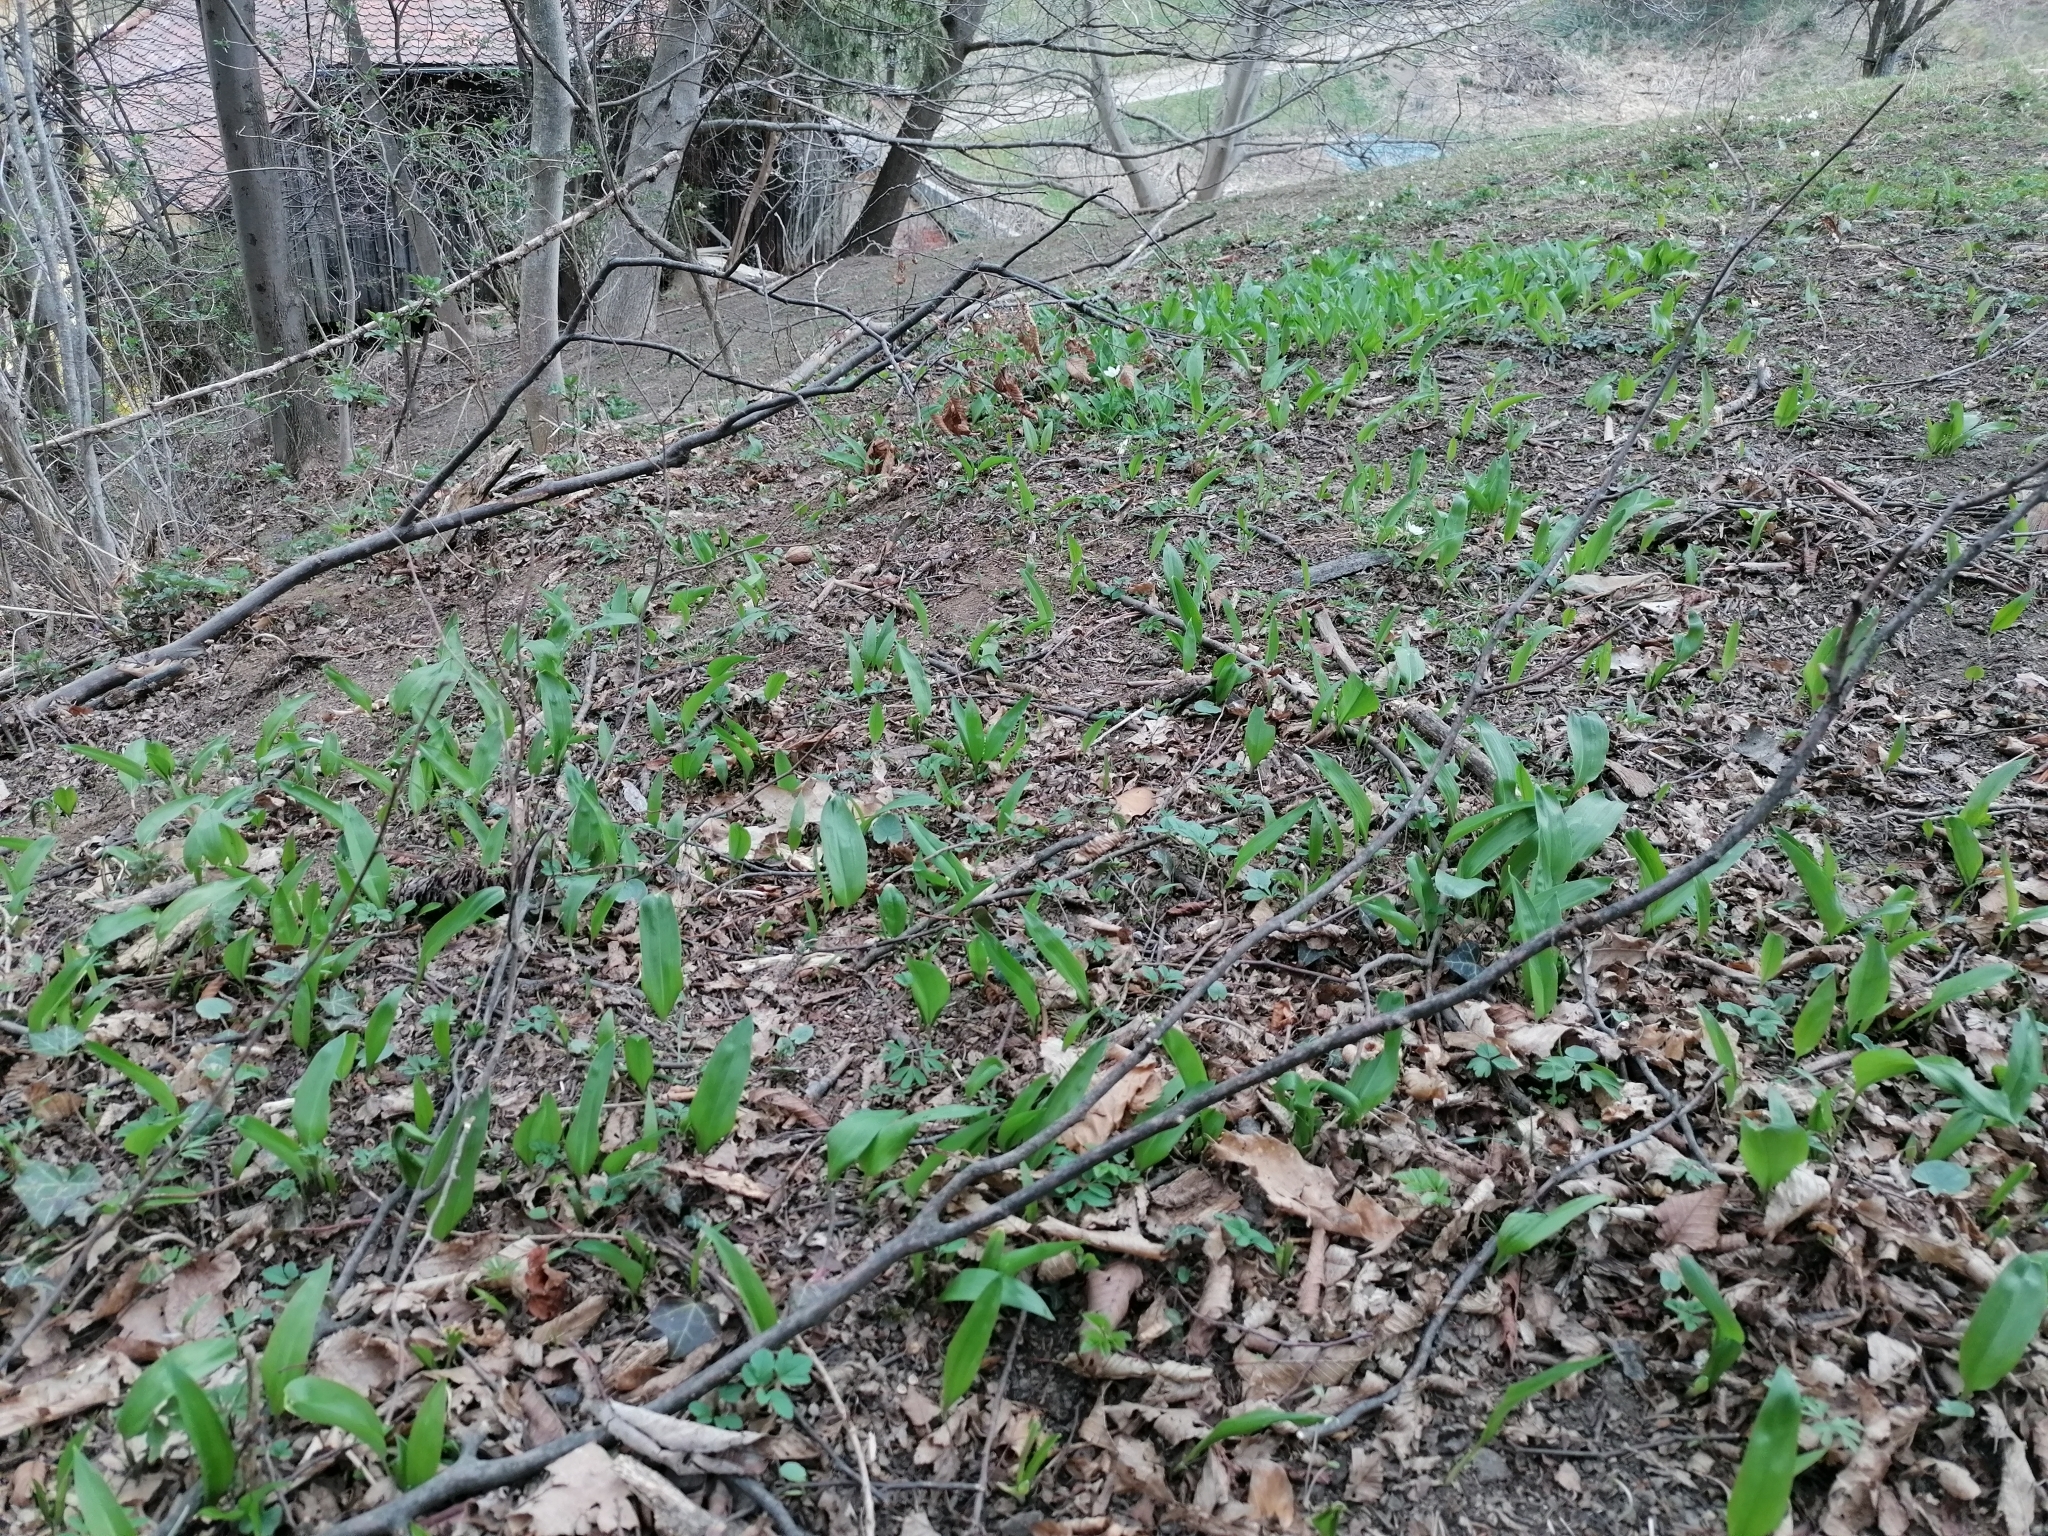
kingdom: Plantae
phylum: Tracheophyta
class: Liliopsida
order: Asparagales
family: Amaryllidaceae
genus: Allium
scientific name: Allium ursinum
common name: Ramsons
